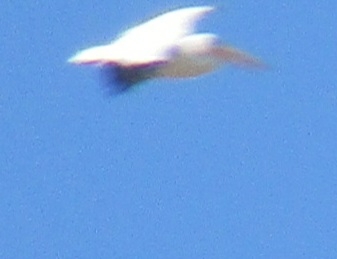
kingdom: Animalia
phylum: Chordata
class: Aves
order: Pelecaniformes
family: Pelecanidae
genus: Pelecanus
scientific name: Pelecanus erythrorhynchos
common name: American white pelican
